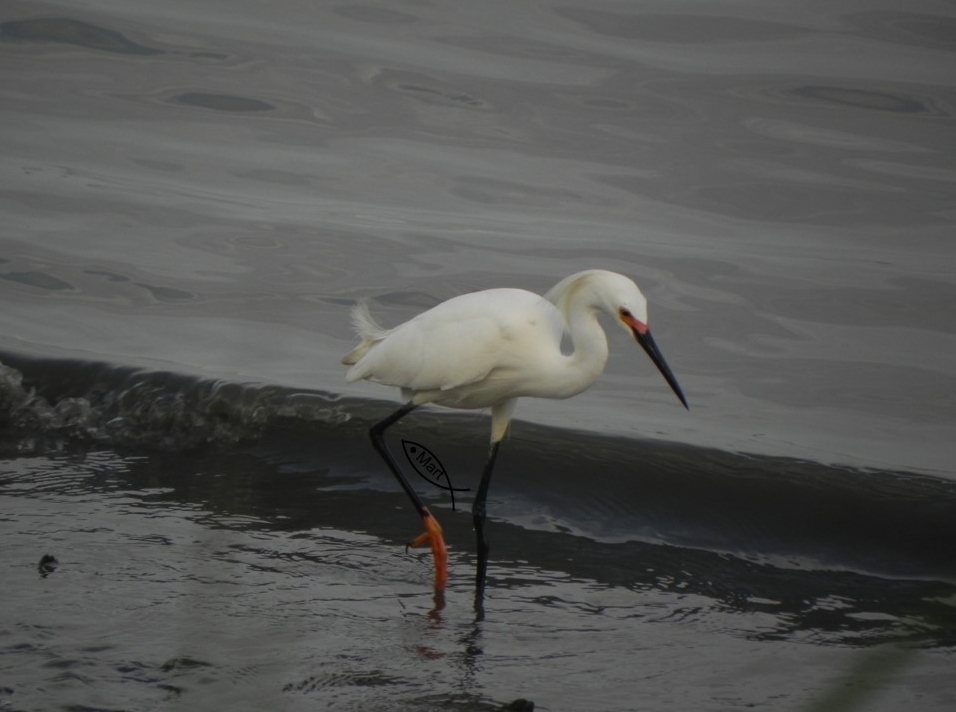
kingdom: Animalia
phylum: Chordata
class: Aves
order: Pelecaniformes
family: Ardeidae
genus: Egretta
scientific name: Egretta thula
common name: Snowy egret
